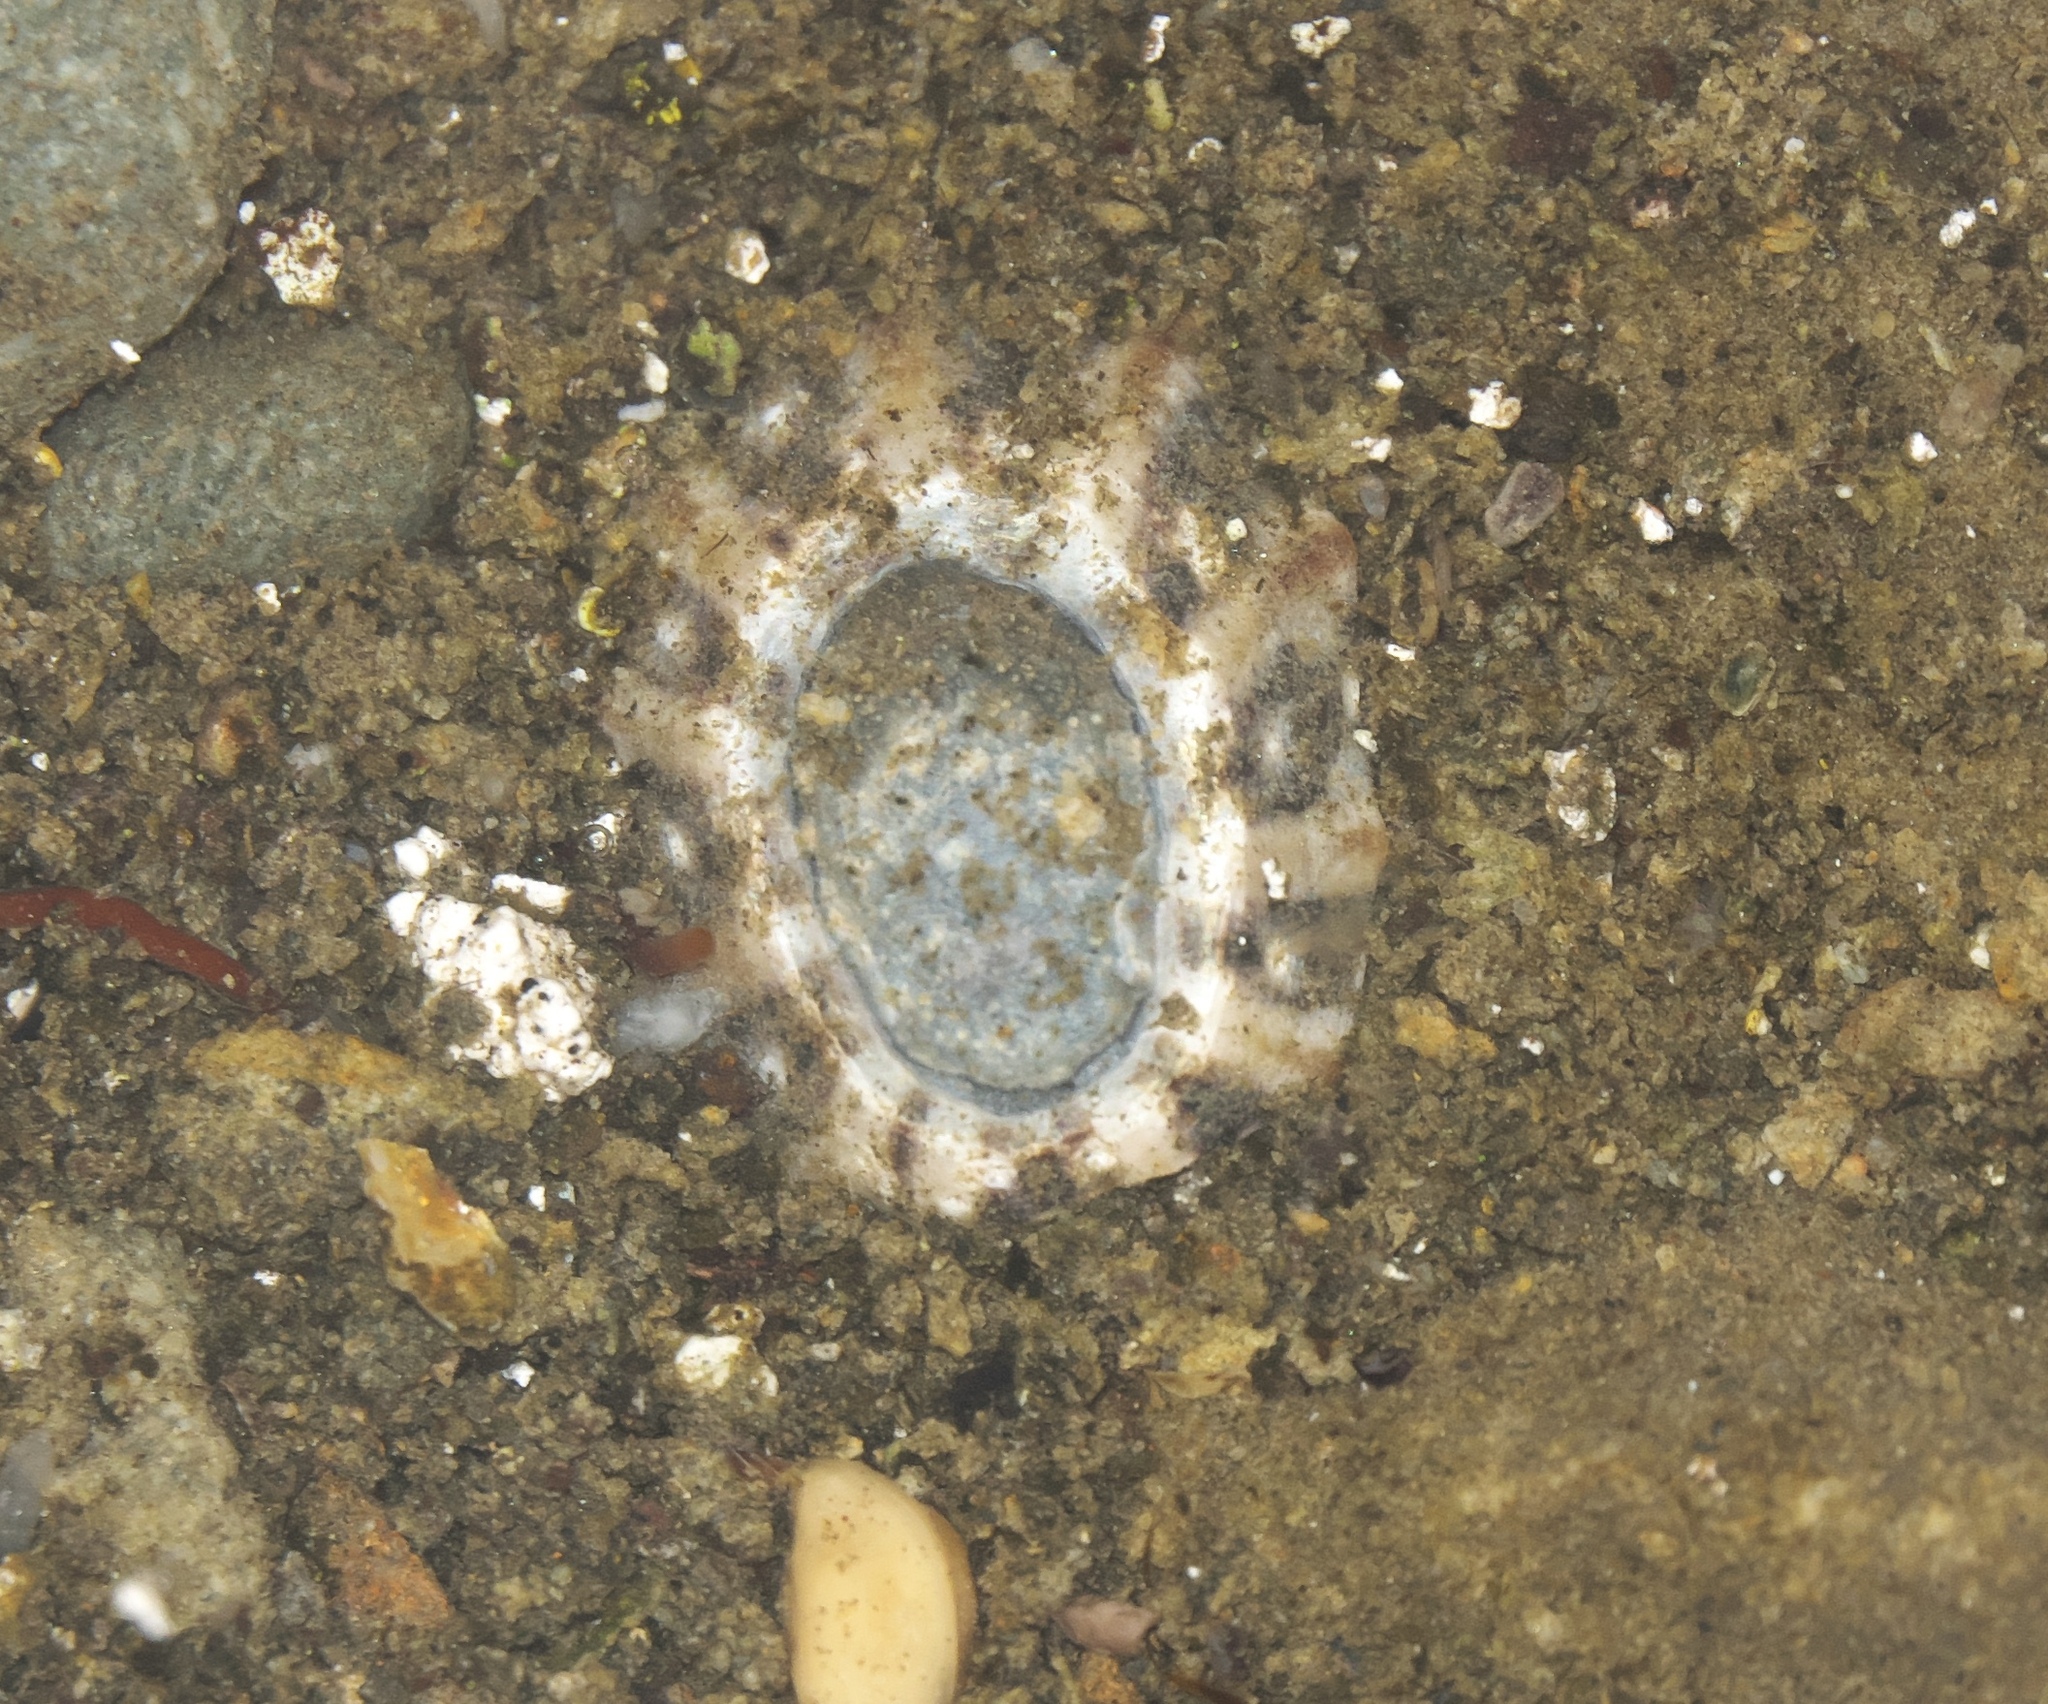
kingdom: Animalia
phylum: Mollusca
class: Gastropoda
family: Nacellidae
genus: Cellana
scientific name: Cellana ornata
